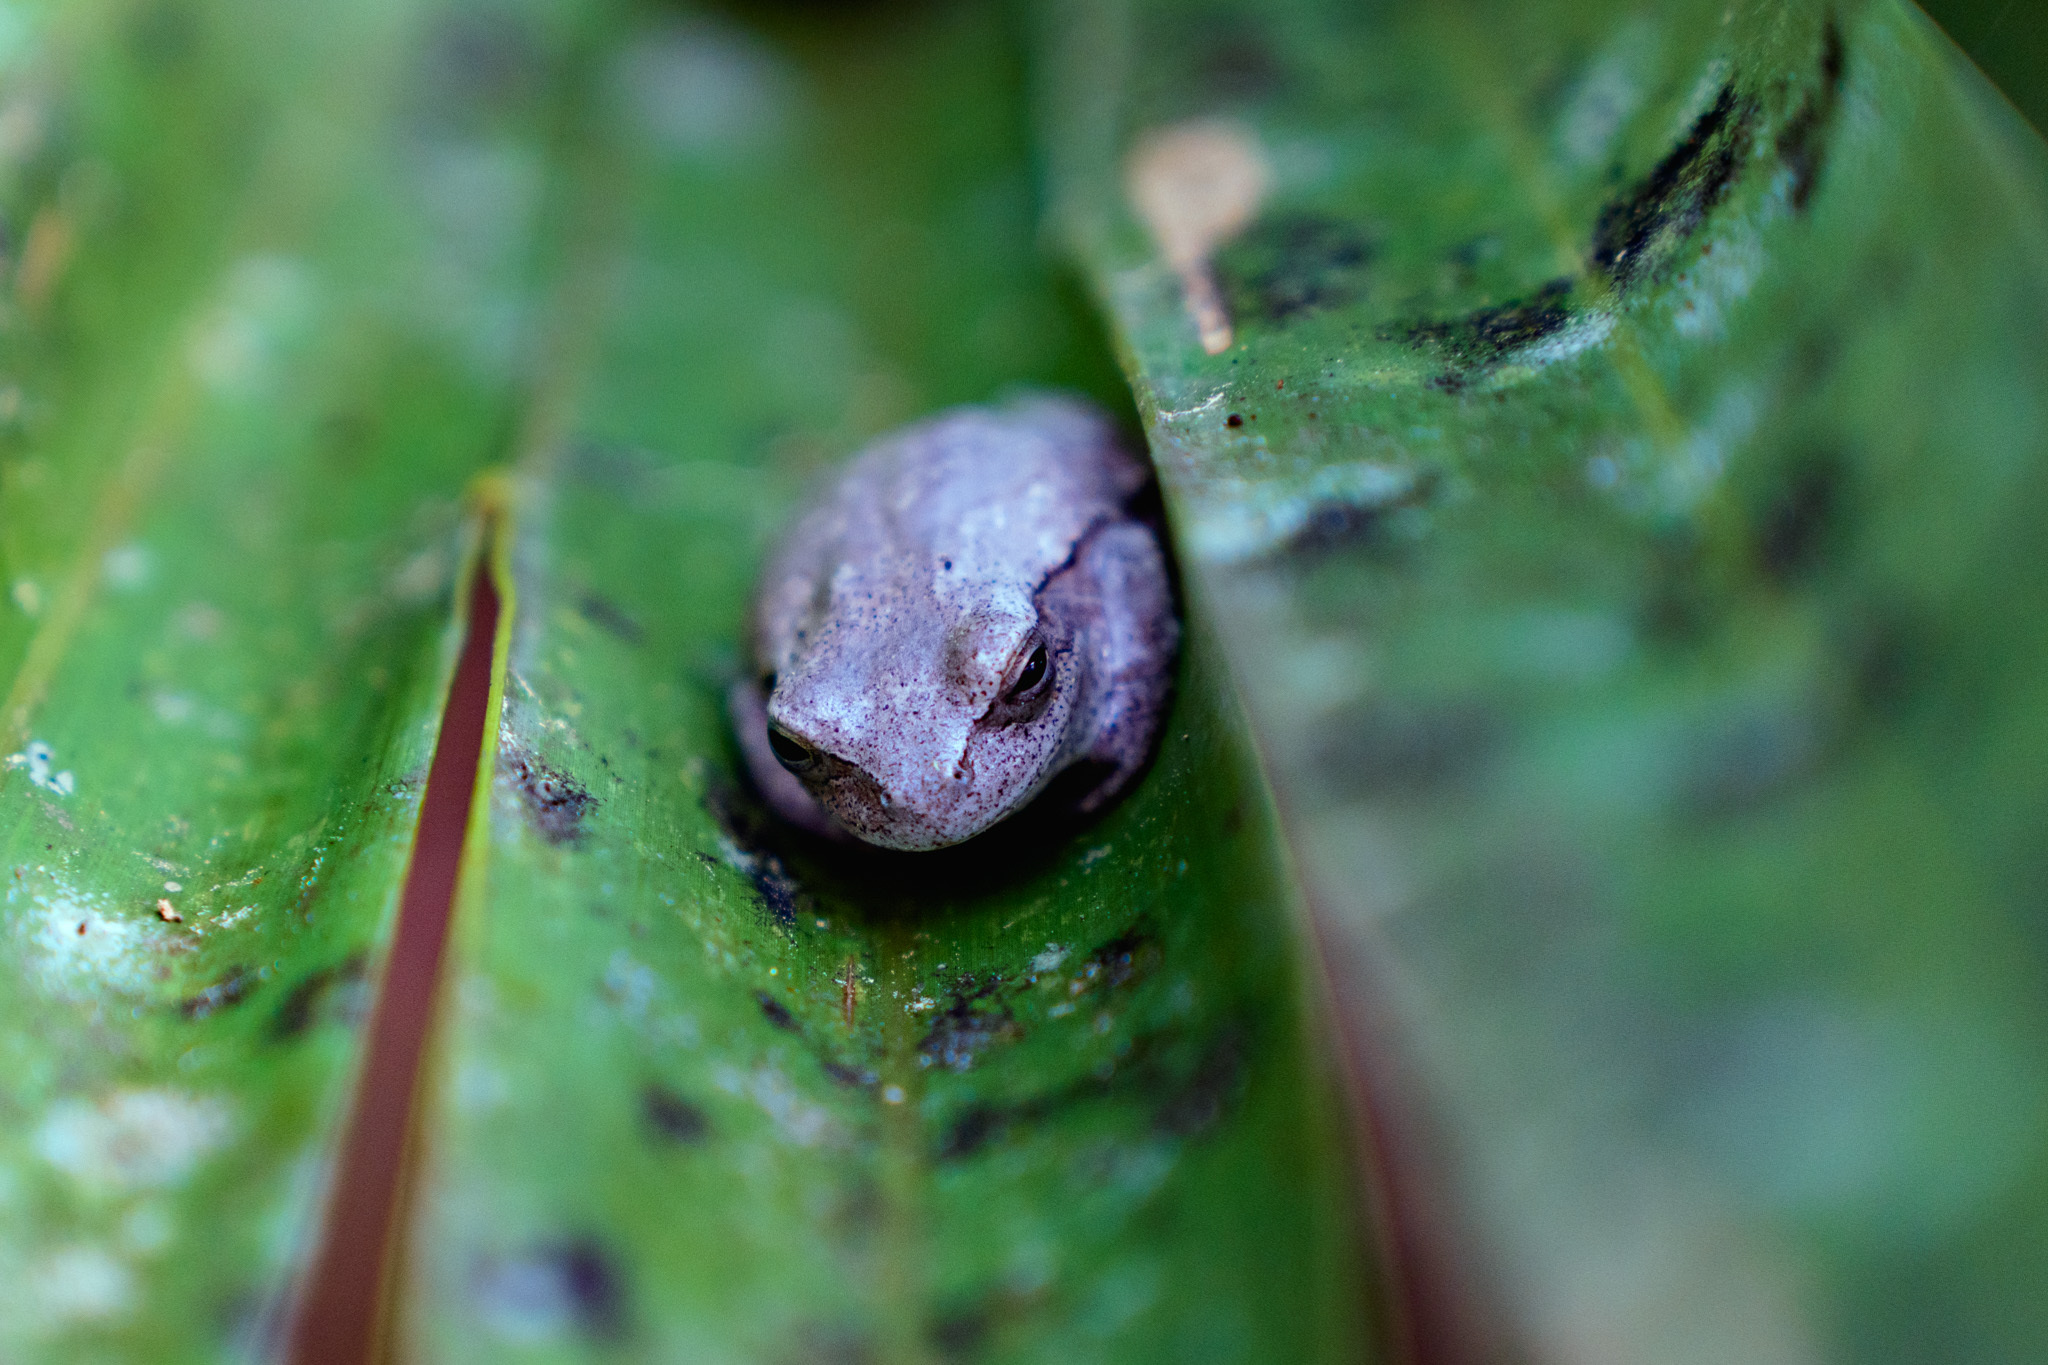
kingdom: Animalia
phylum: Chordata
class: Amphibia
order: Anura
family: Hylidae
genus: Hyla
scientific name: Hyla femoralis
